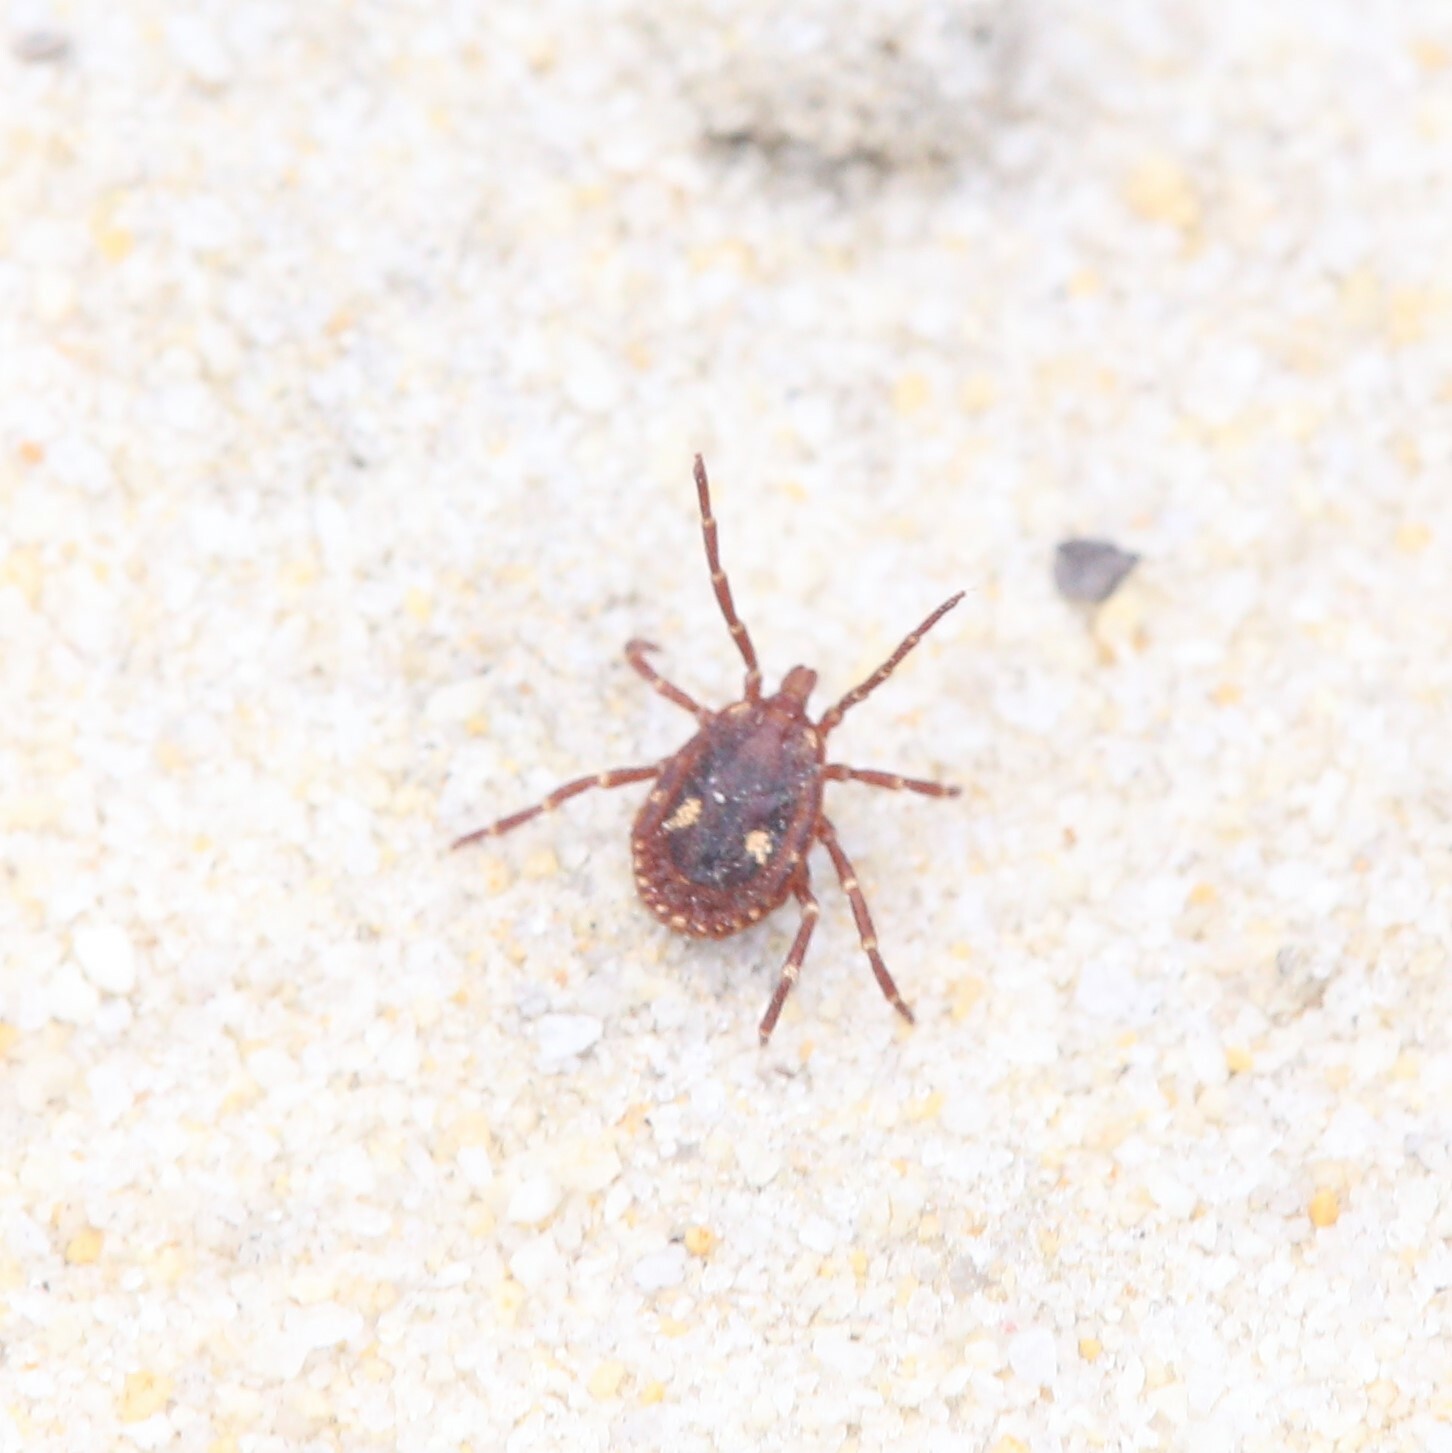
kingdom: Animalia
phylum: Arthropoda
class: Arachnida
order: Ixodida
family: Ixodidae
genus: Amblyomma
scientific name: Amblyomma triguttatum
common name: Kangaroo hard tick
